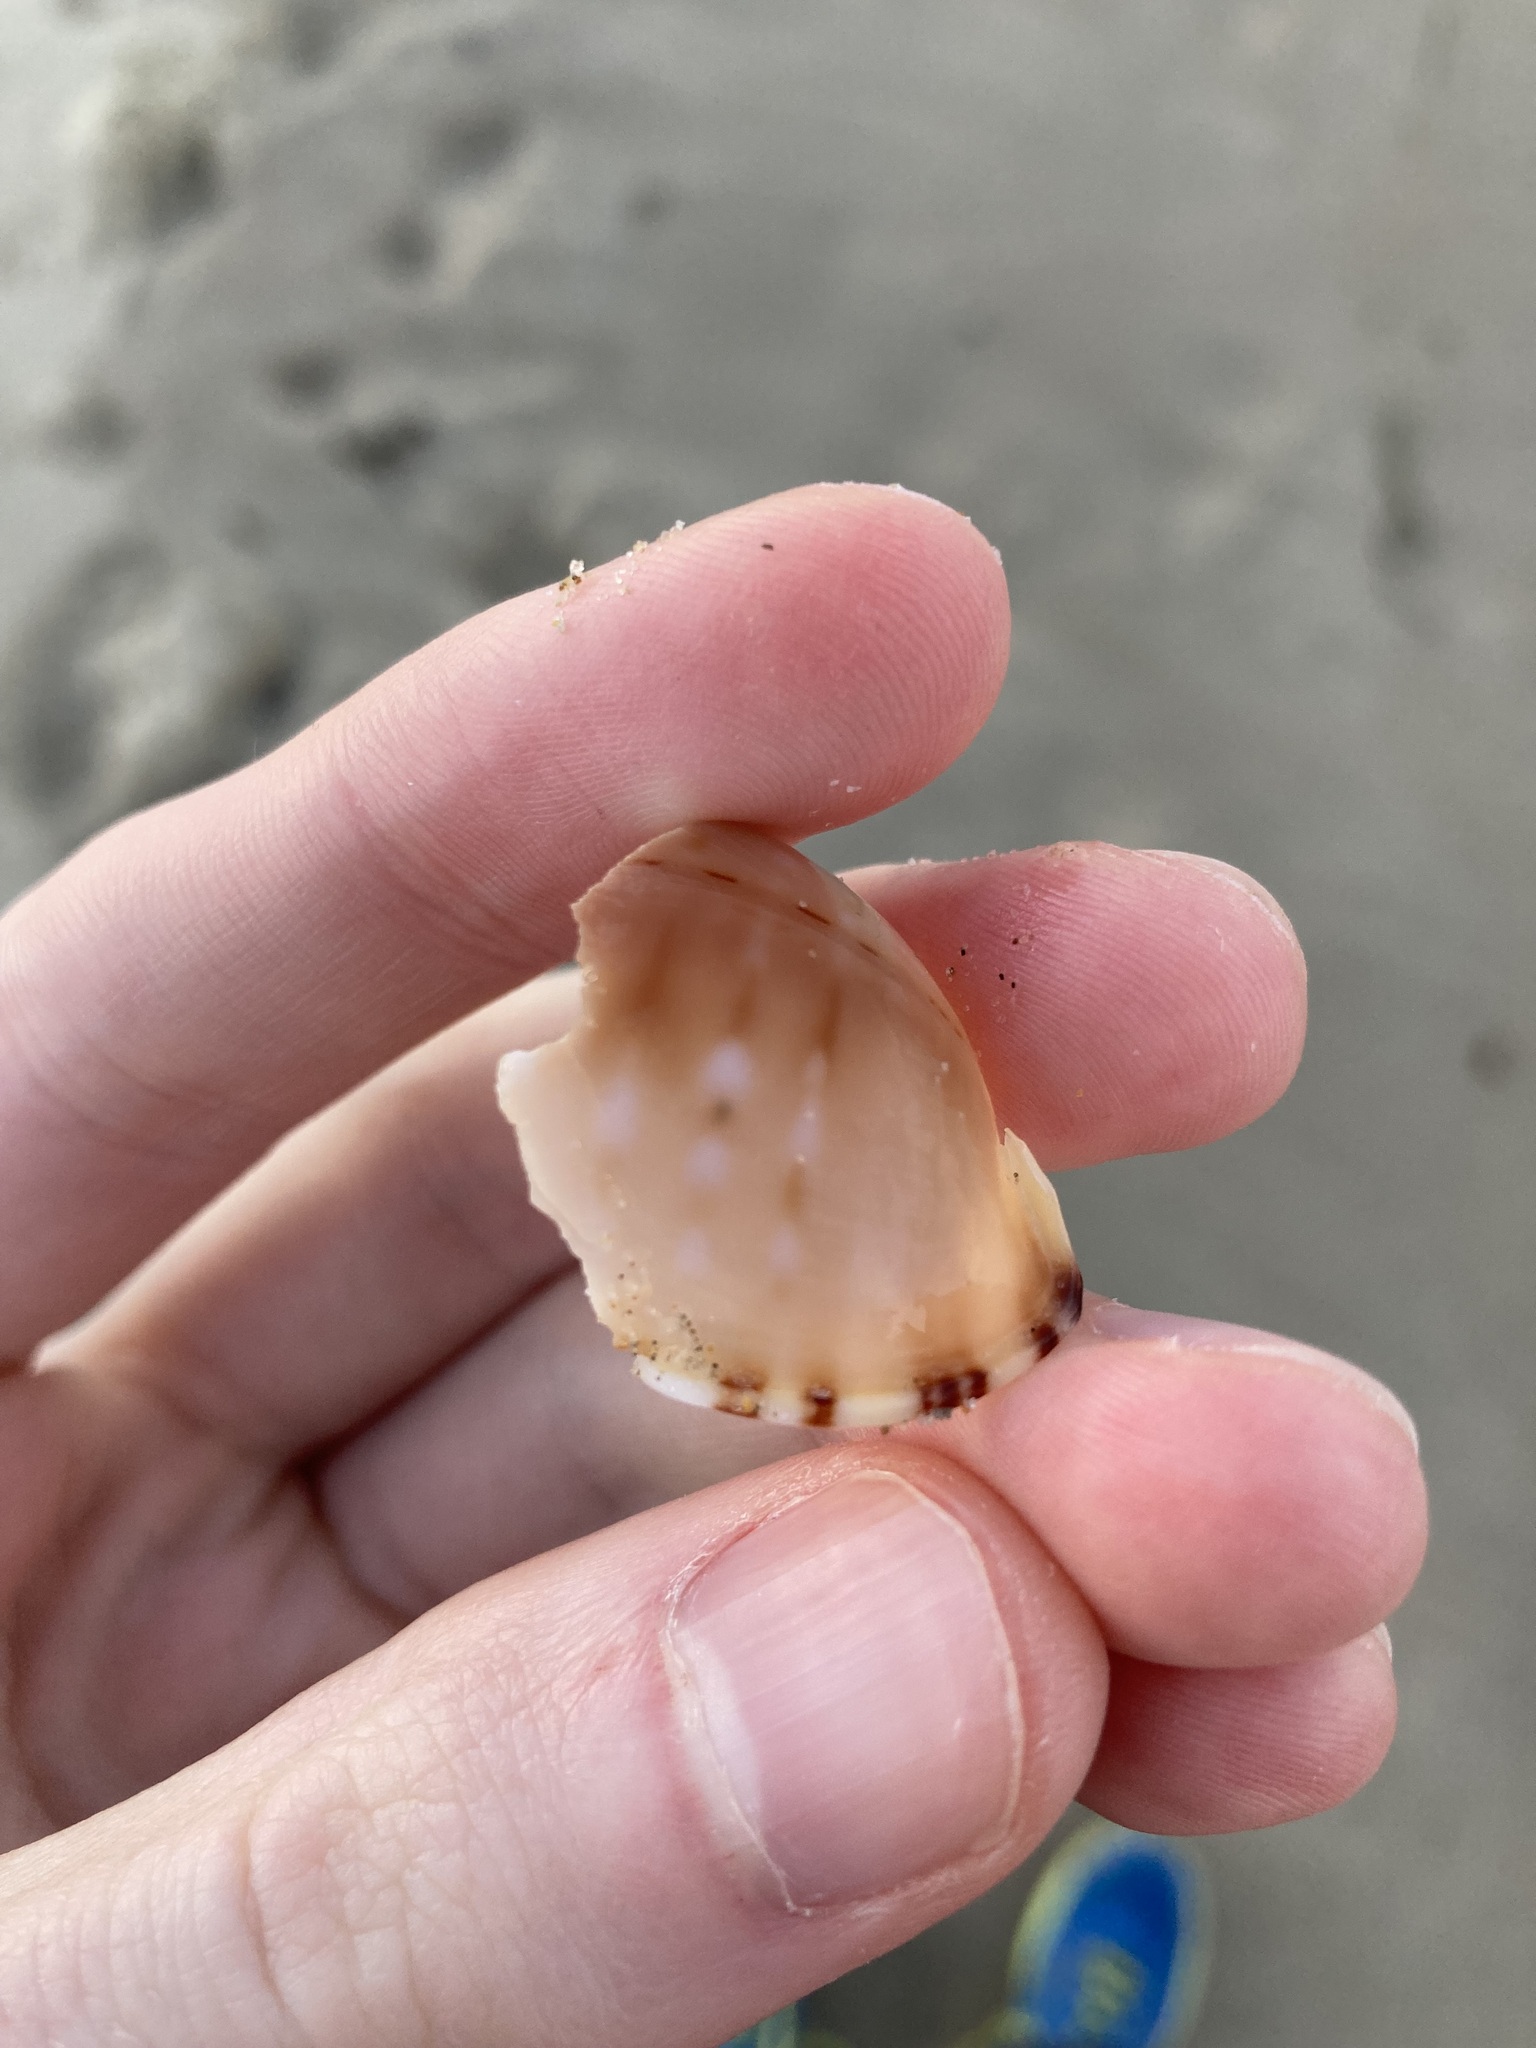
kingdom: Animalia
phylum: Mollusca
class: Gastropoda
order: Littorinimorpha
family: Cassidae
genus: Semicassis
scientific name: Semicassis labiata
